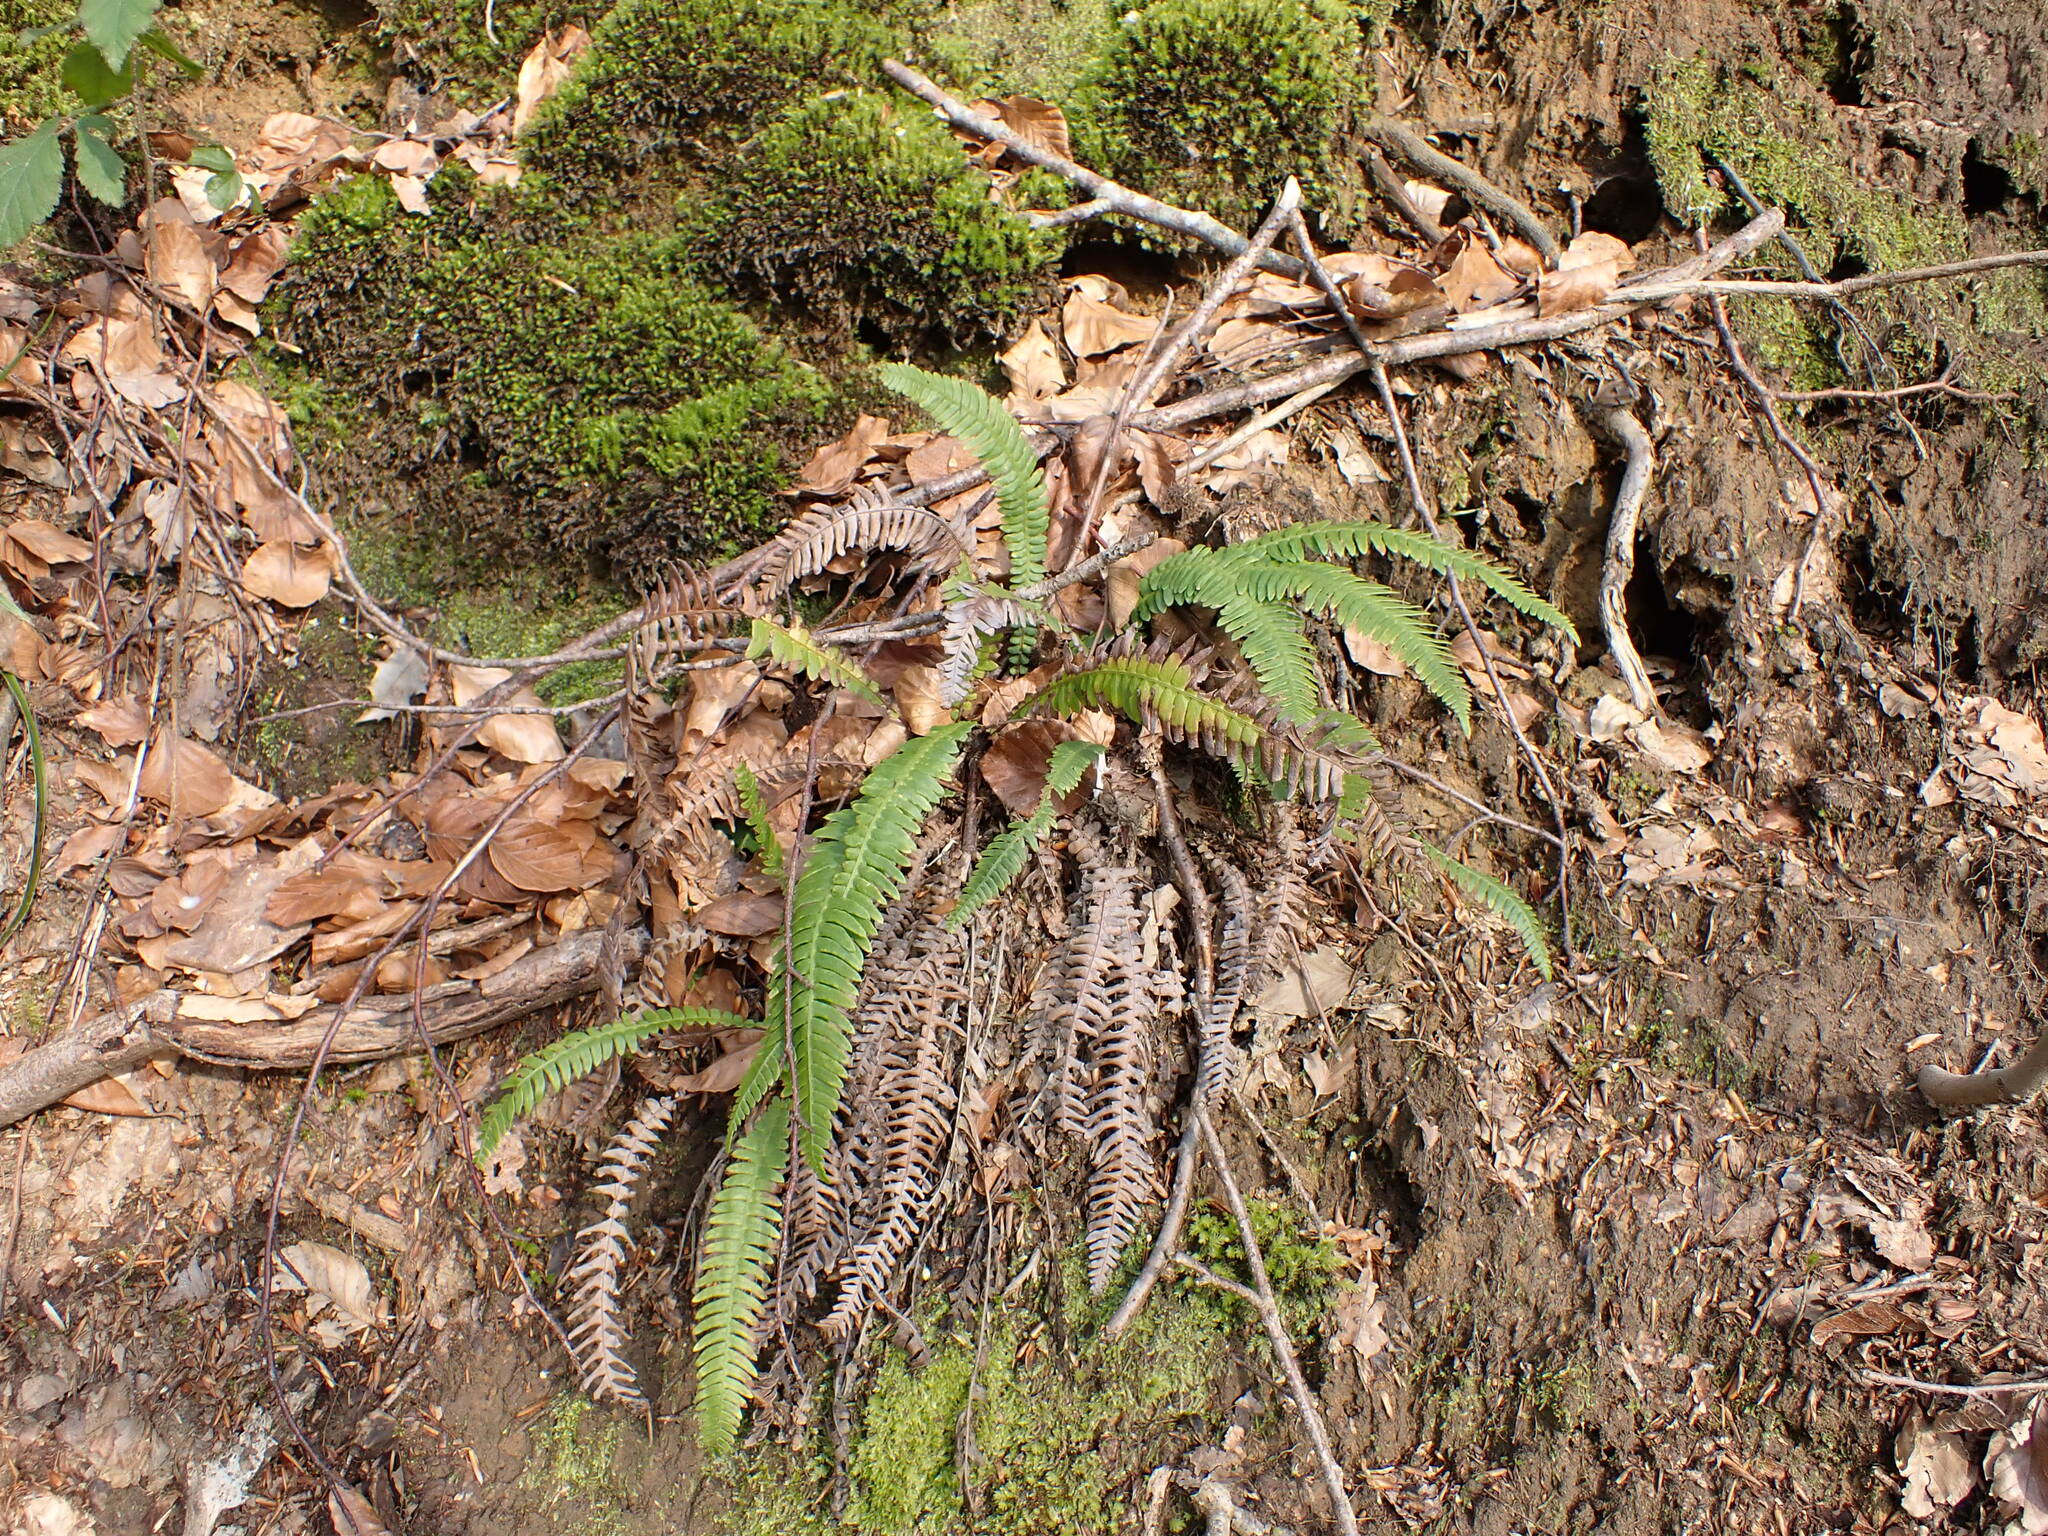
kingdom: Plantae
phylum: Tracheophyta
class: Polypodiopsida
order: Polypodiales
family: Blechnaceae
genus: Struthiopteris
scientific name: Struthiopteris spicant
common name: Deer fern
